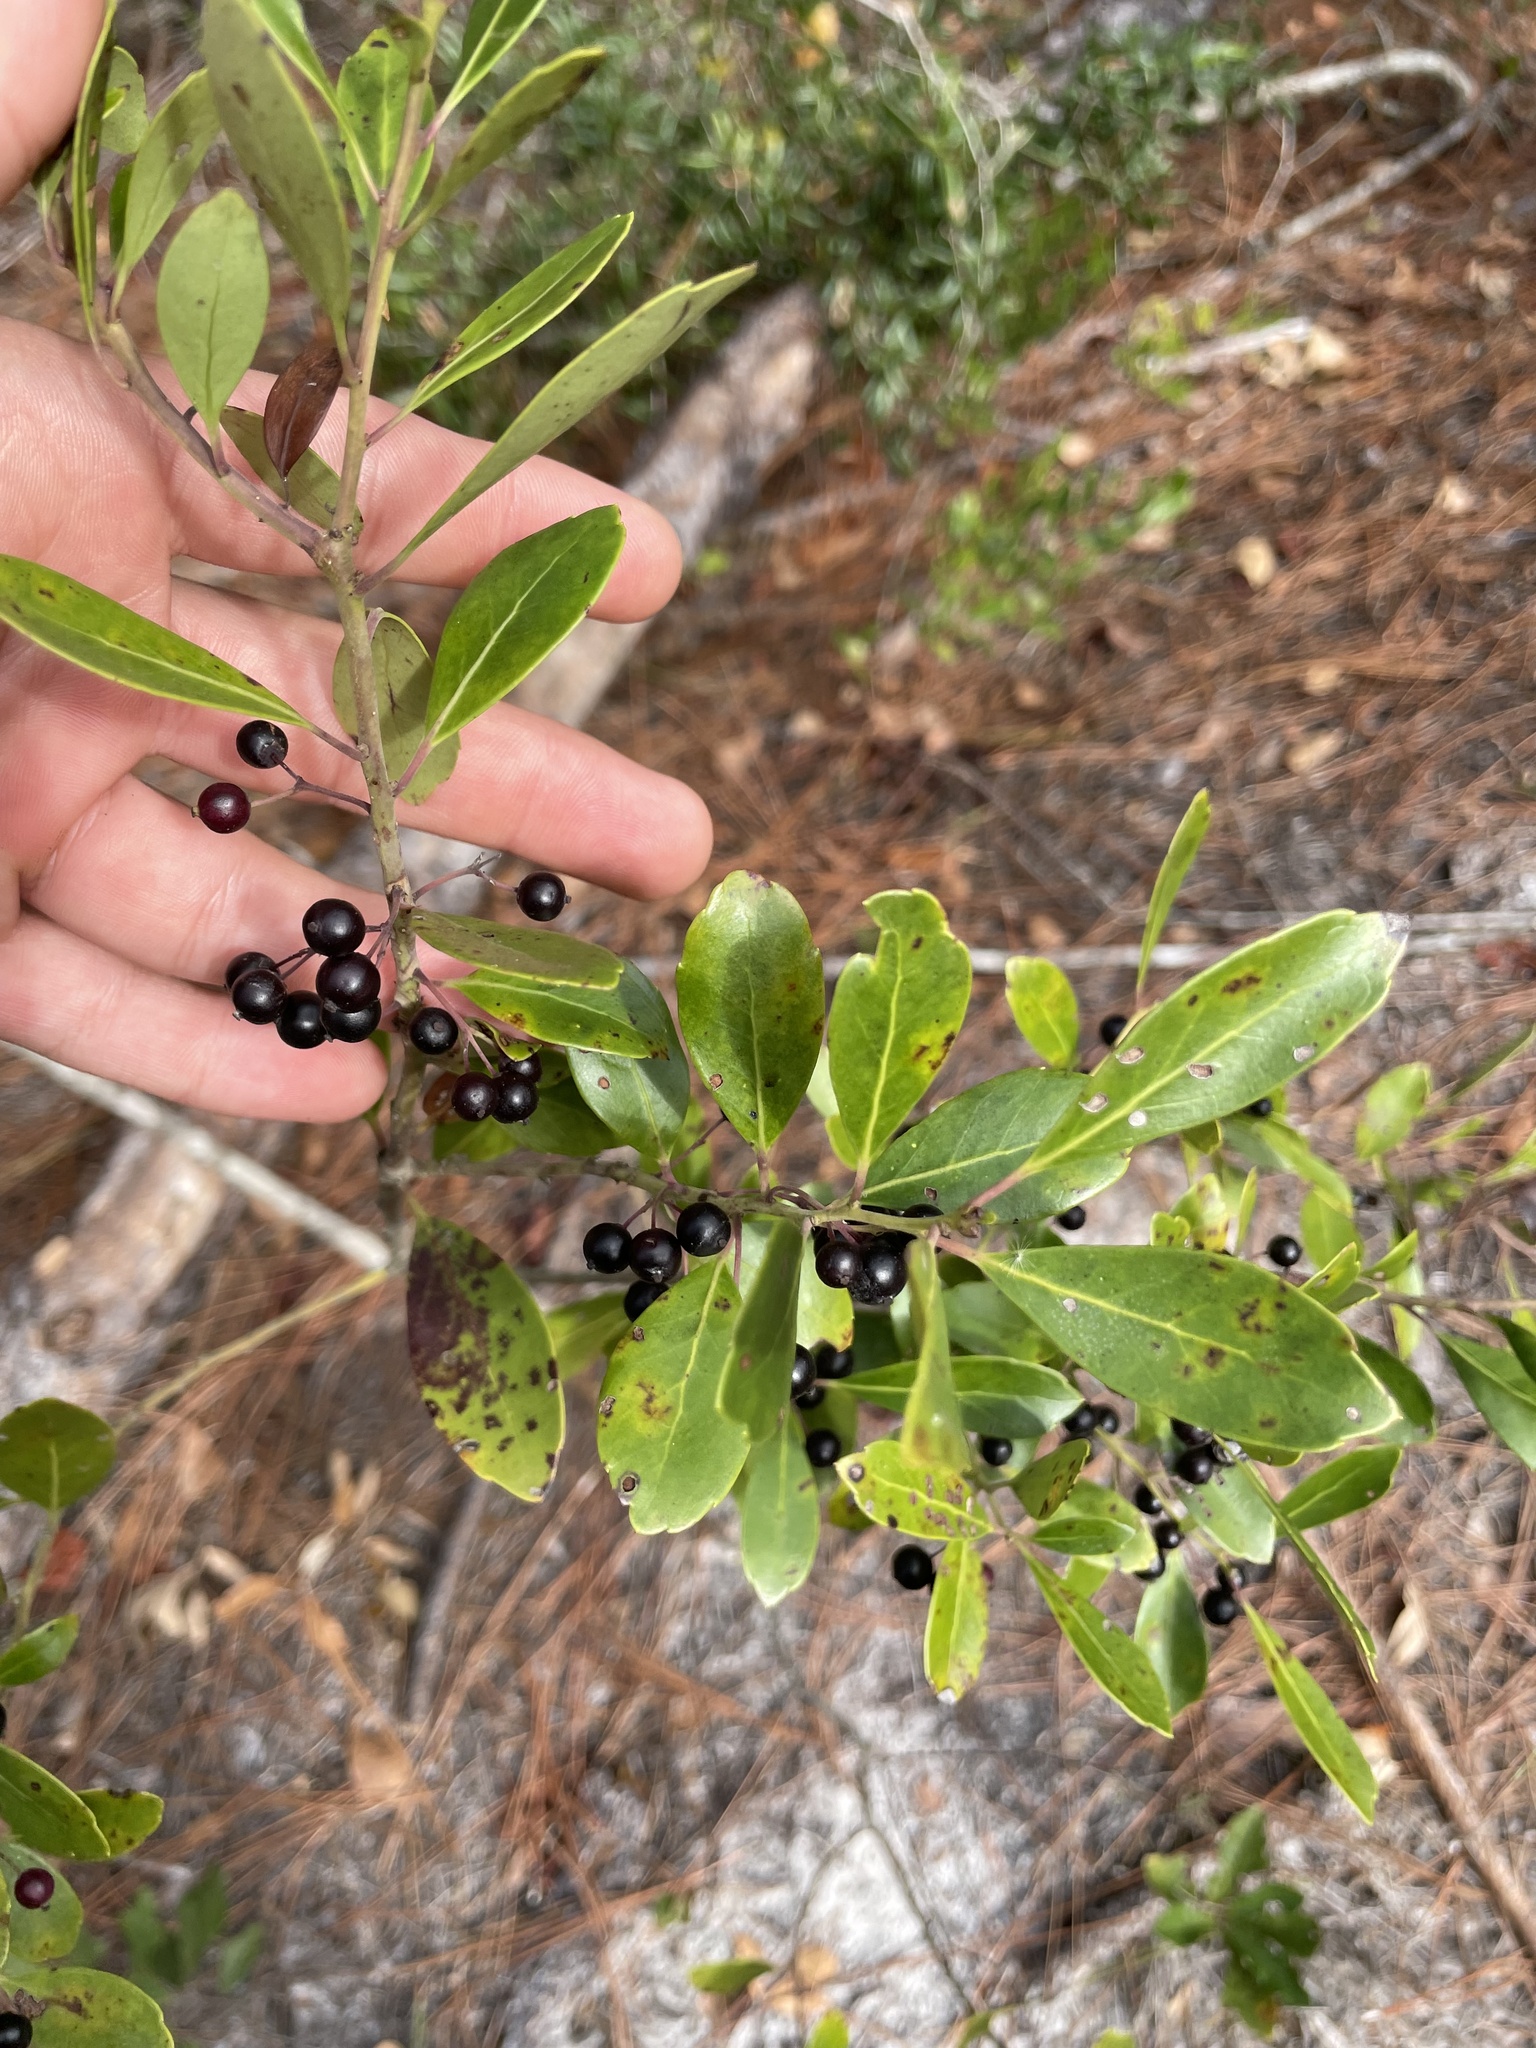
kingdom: Plantae
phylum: Tracheophyta
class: Magnoliopsida
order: Aquifoliales
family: Aquifoliaceae
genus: Ilex
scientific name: Ilex glabra
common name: Bitter gallberry
